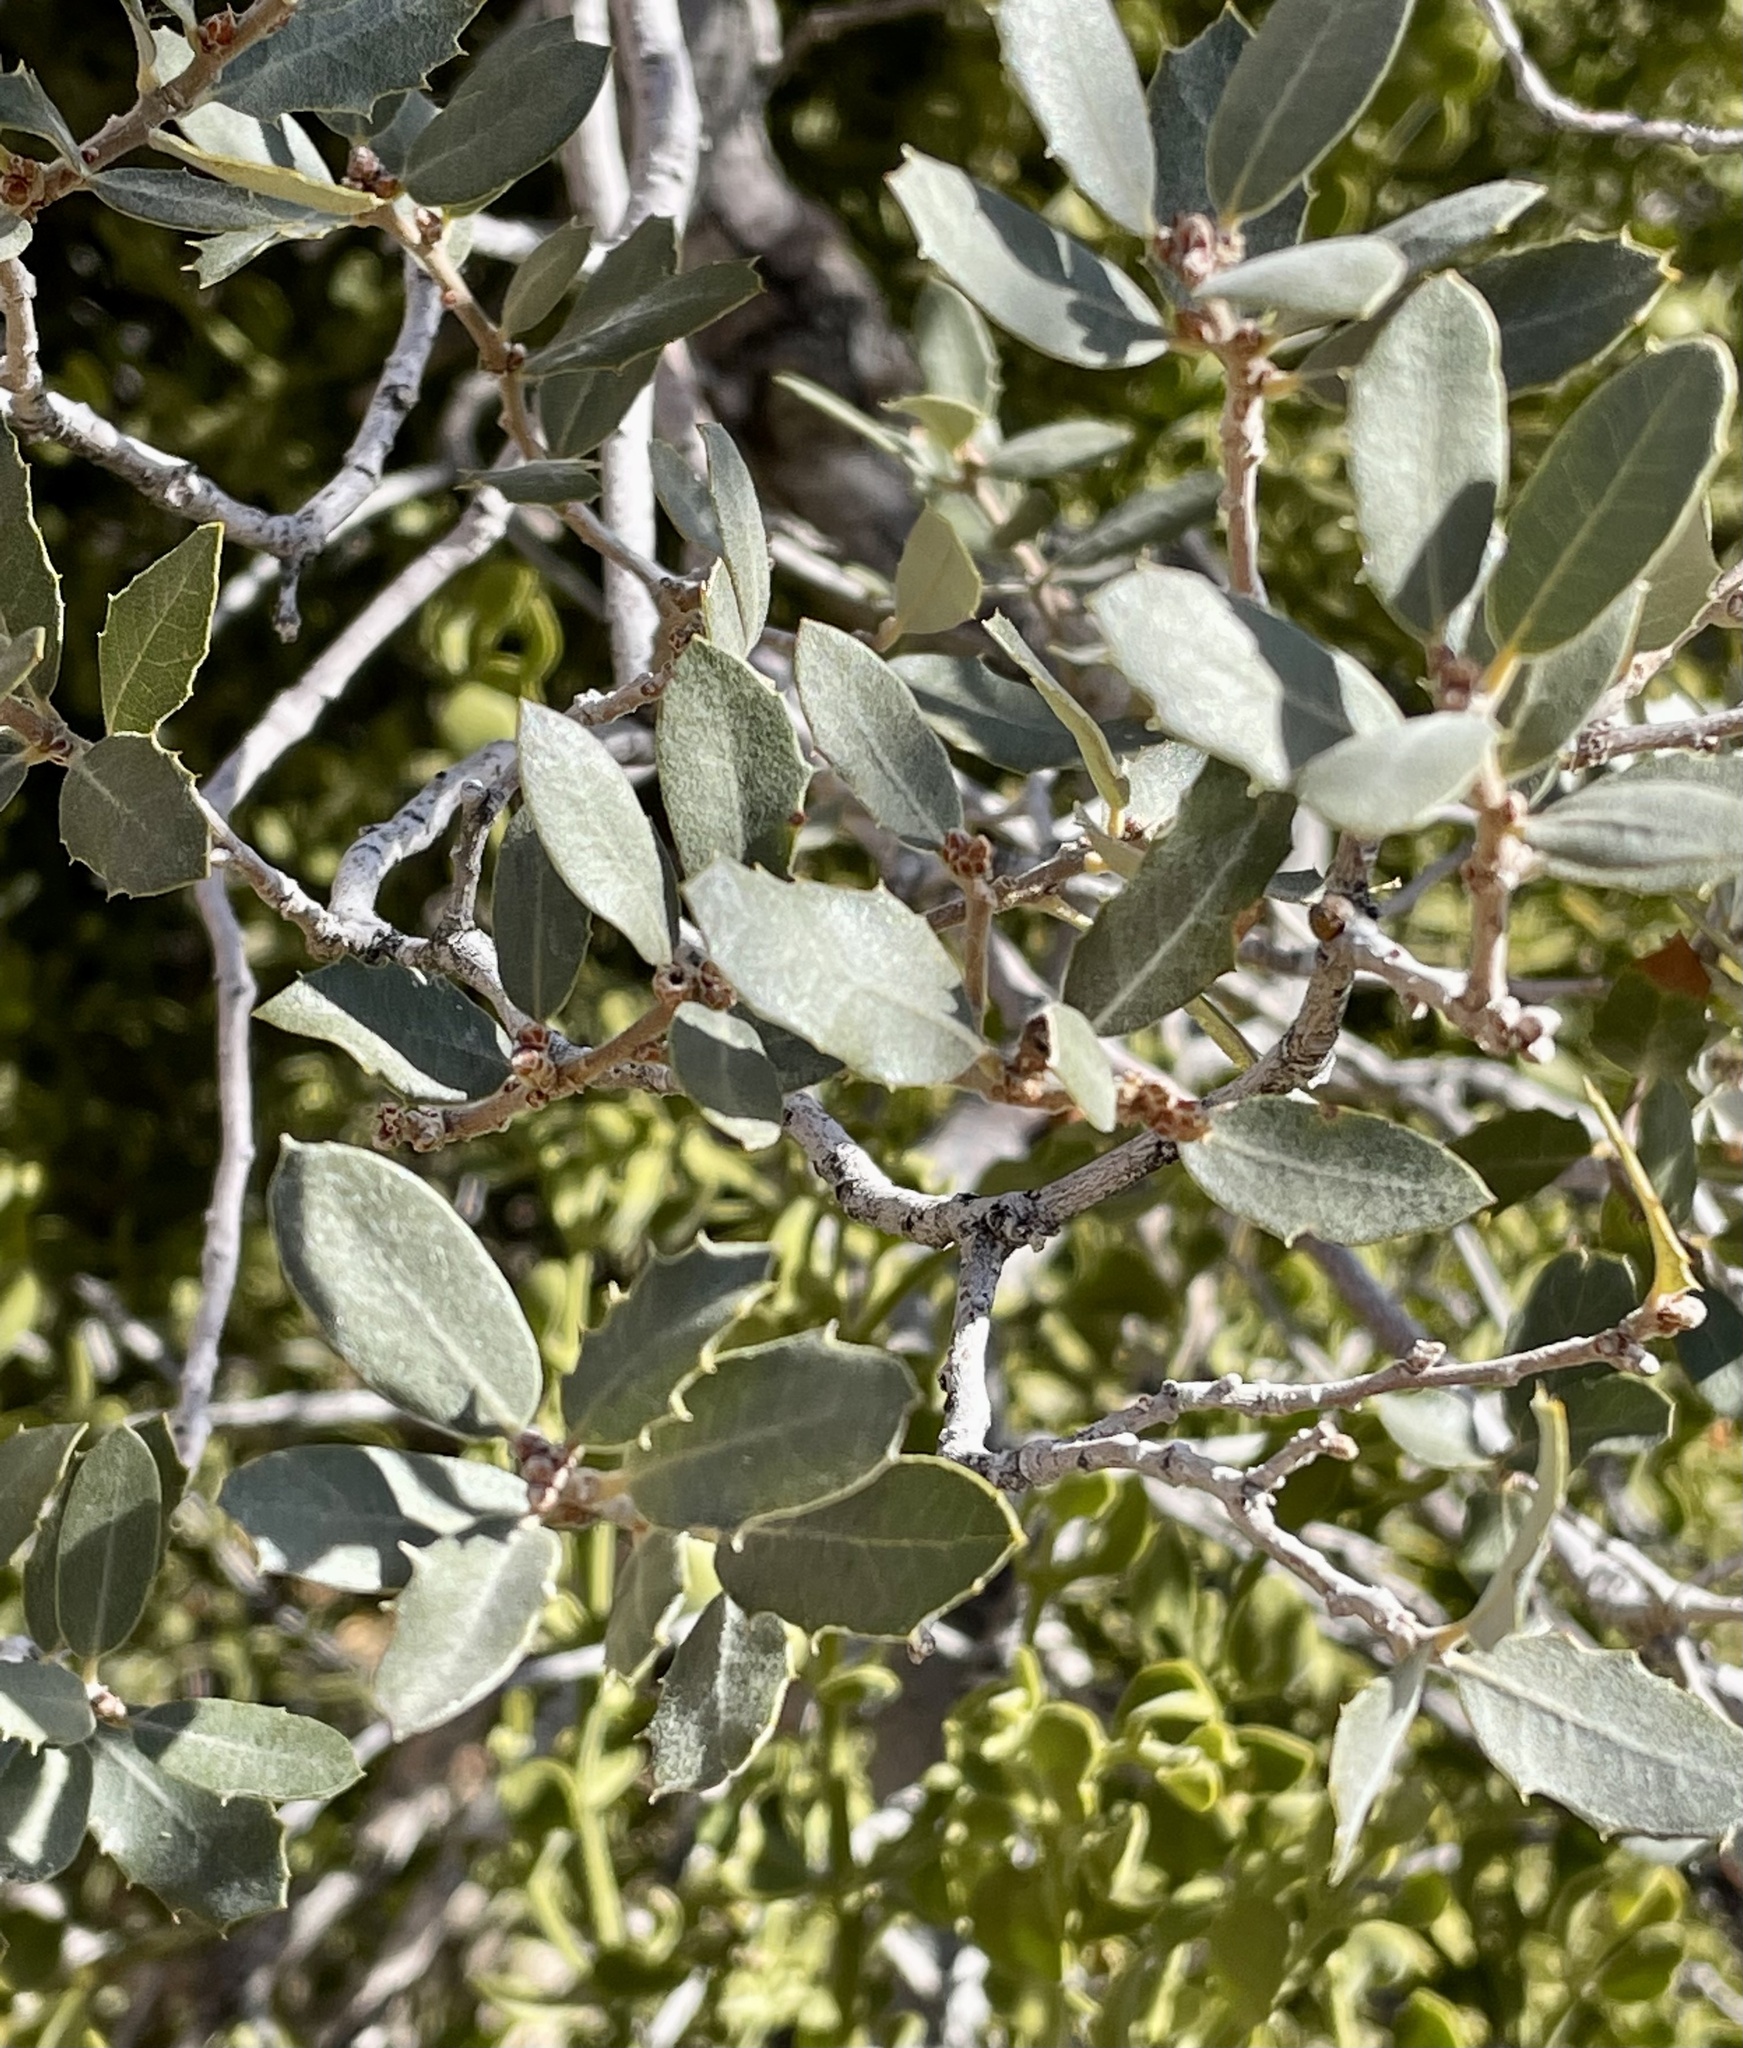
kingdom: Plantae
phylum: Tracheophyta
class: Magnoliopsida
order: Fagales
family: Fagaceae
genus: Quercus
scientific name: Quercus cornelius-mulleri
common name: Muller oak
